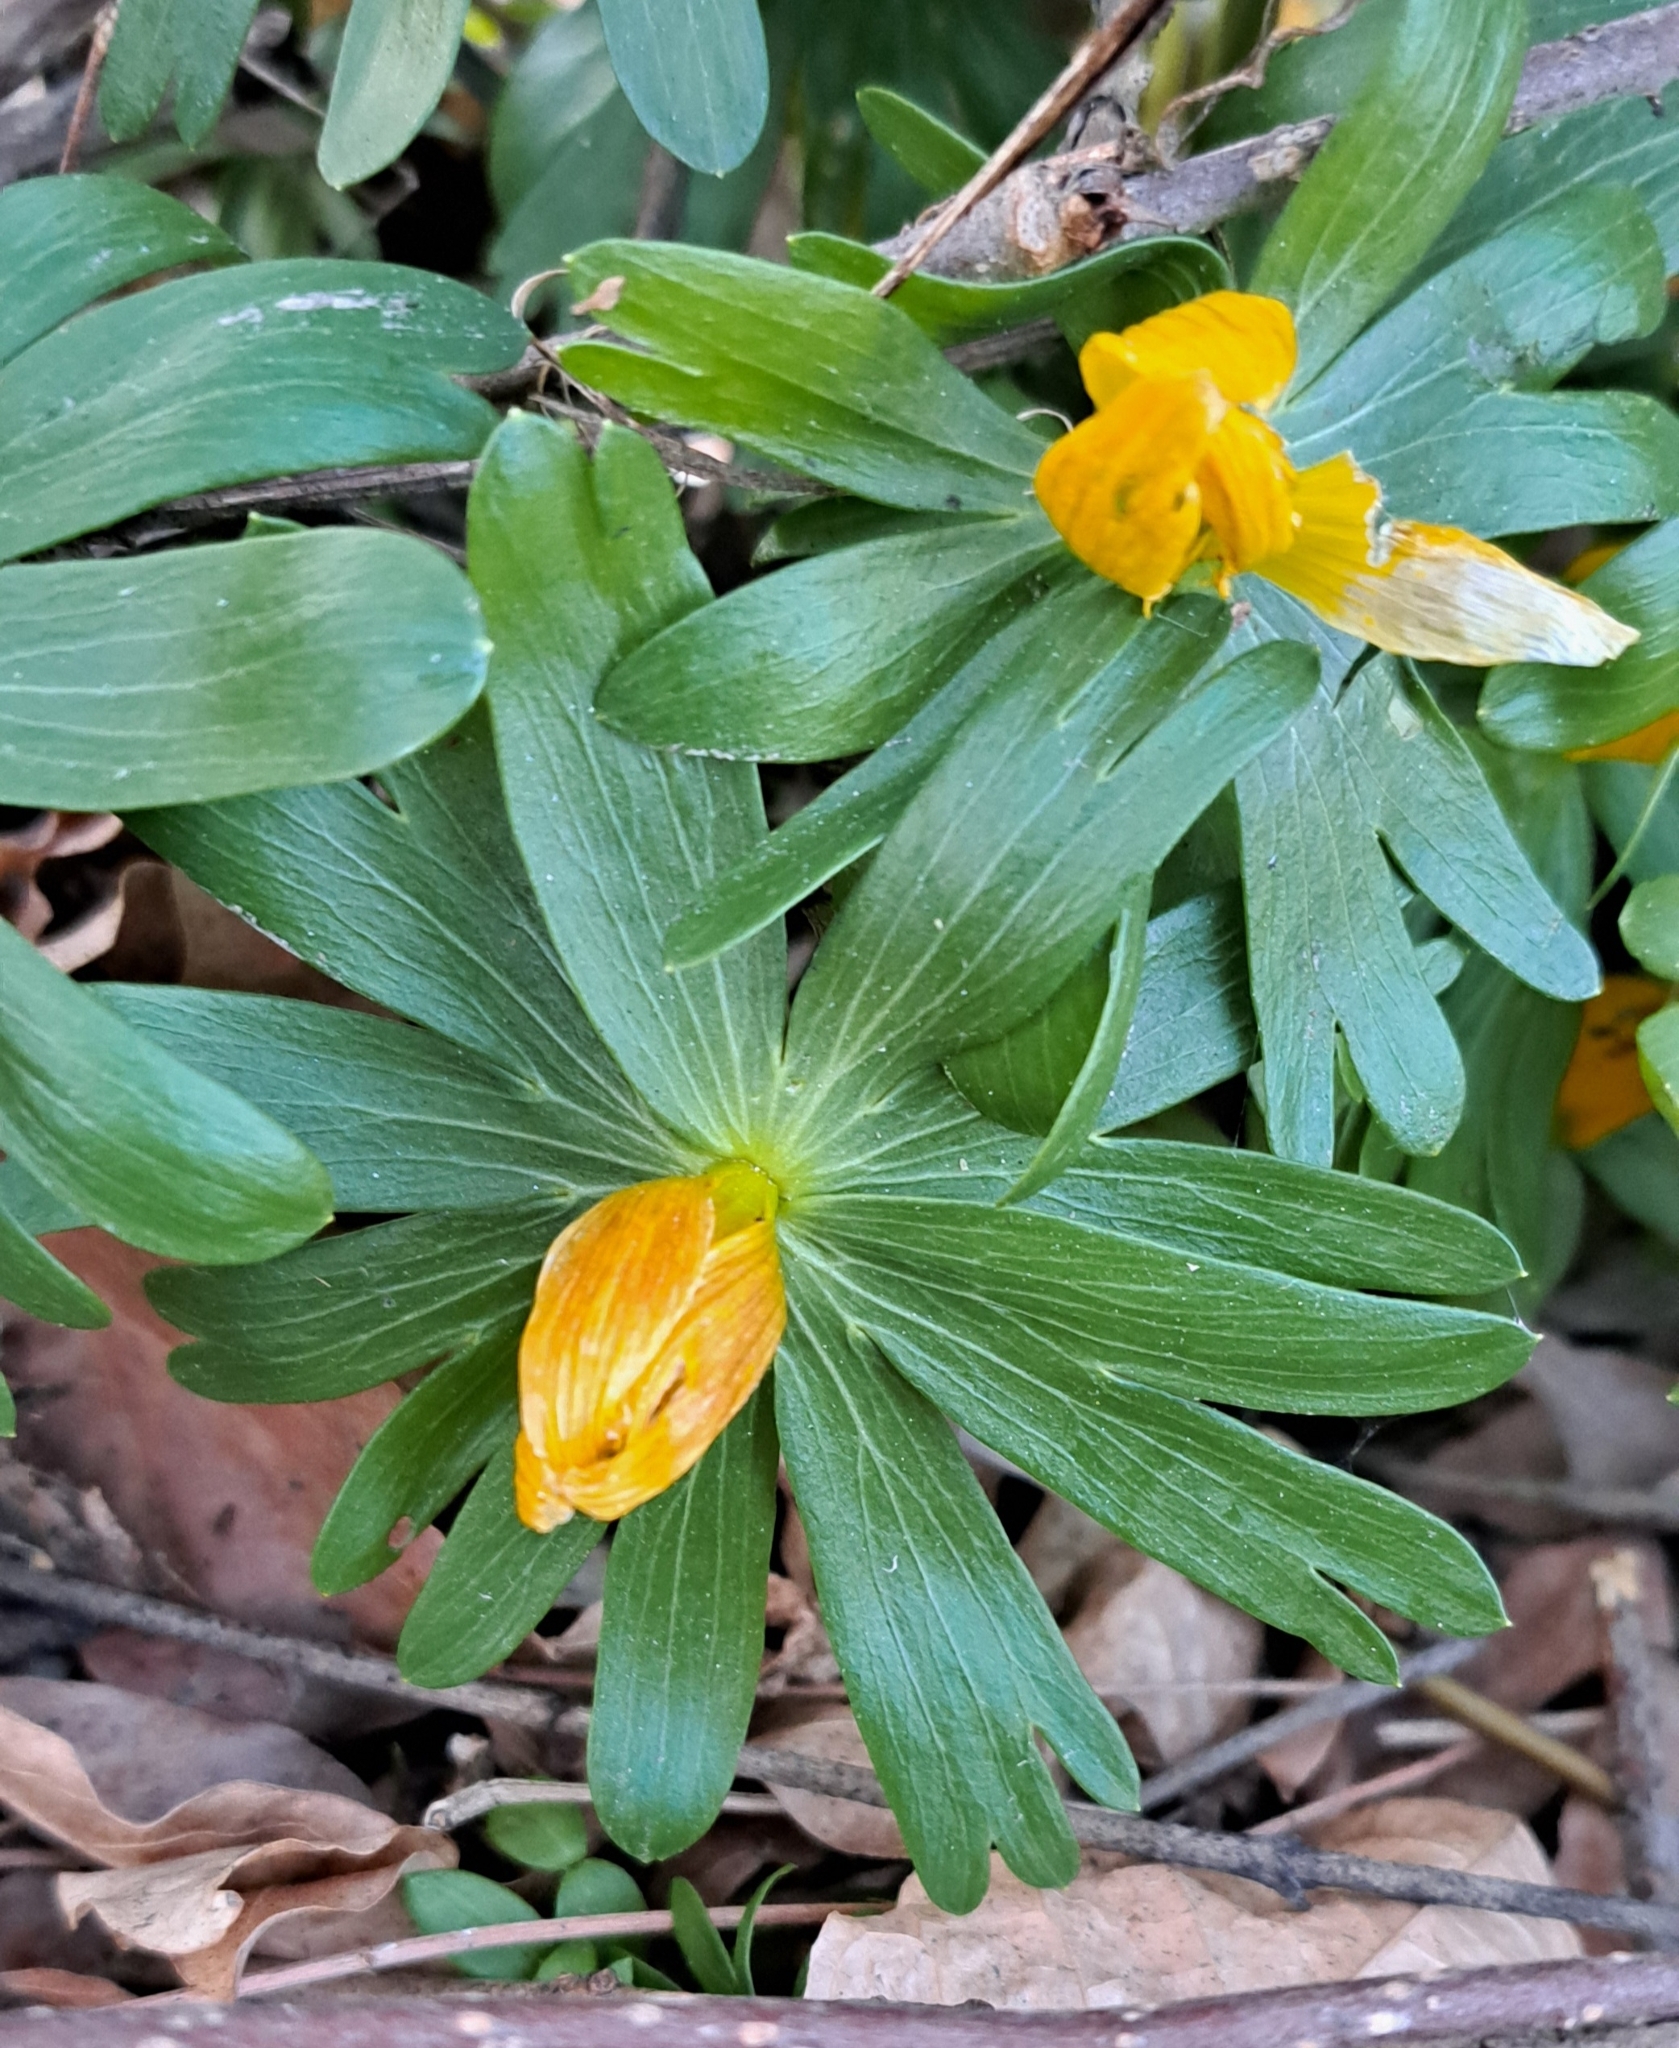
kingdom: Plantae
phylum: Tracheophyta
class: Magnoliopsida
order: Ranunculales
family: Ranunculaceae
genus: Eranthis
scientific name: Eranthis hyemalis
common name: Winter aconite
